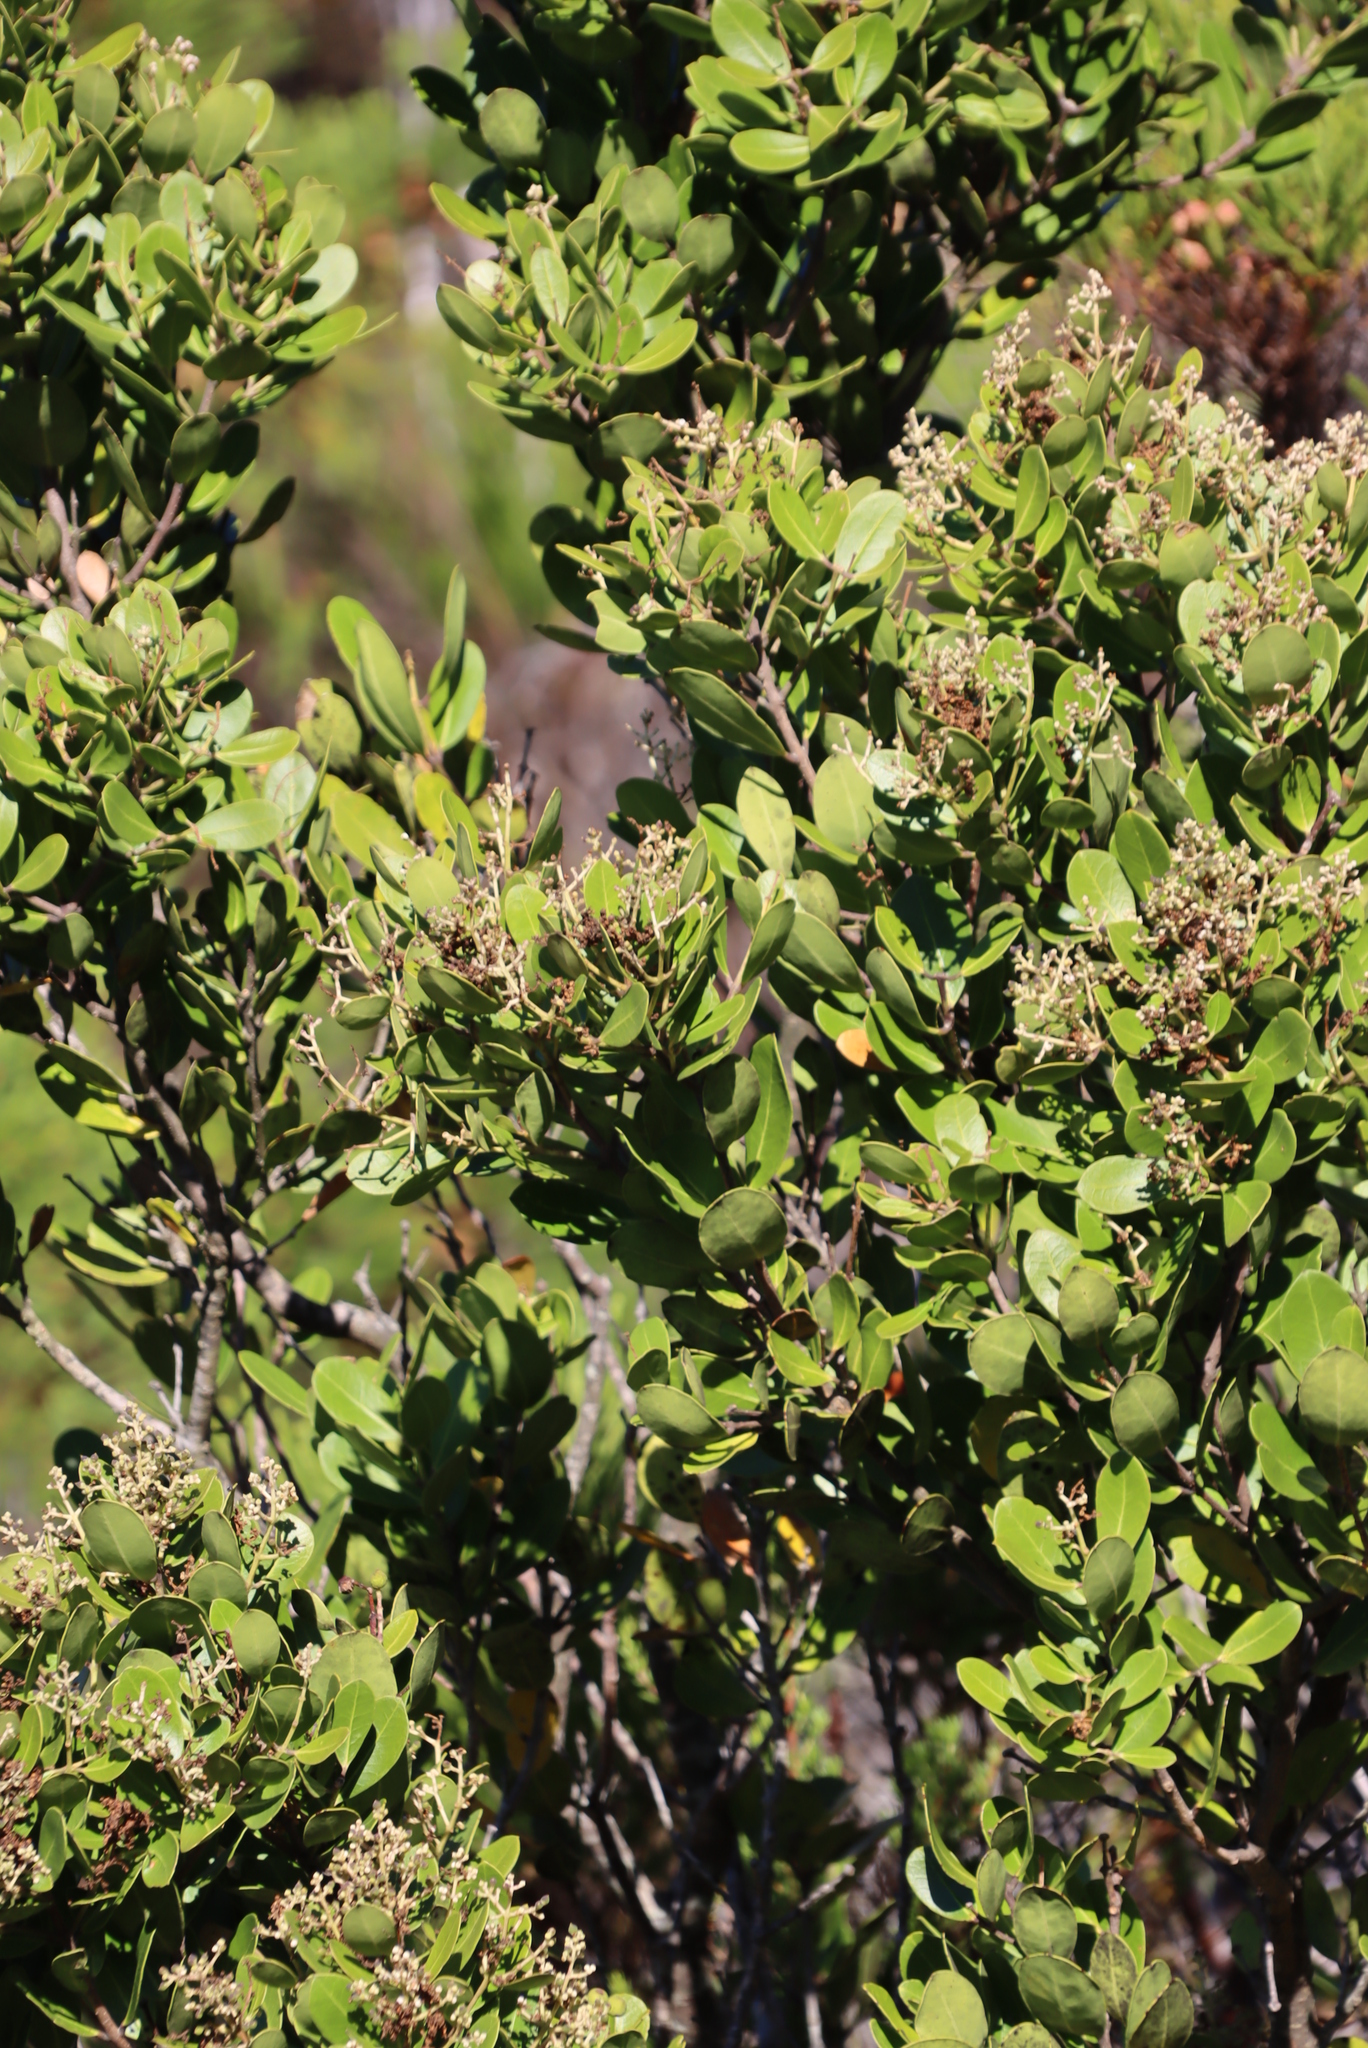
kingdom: Plantae
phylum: Tracheophyta
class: Magnoliopsida
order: Lamiales
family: Oleaceae
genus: Olea
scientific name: Olea capensis
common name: Black ironwood
